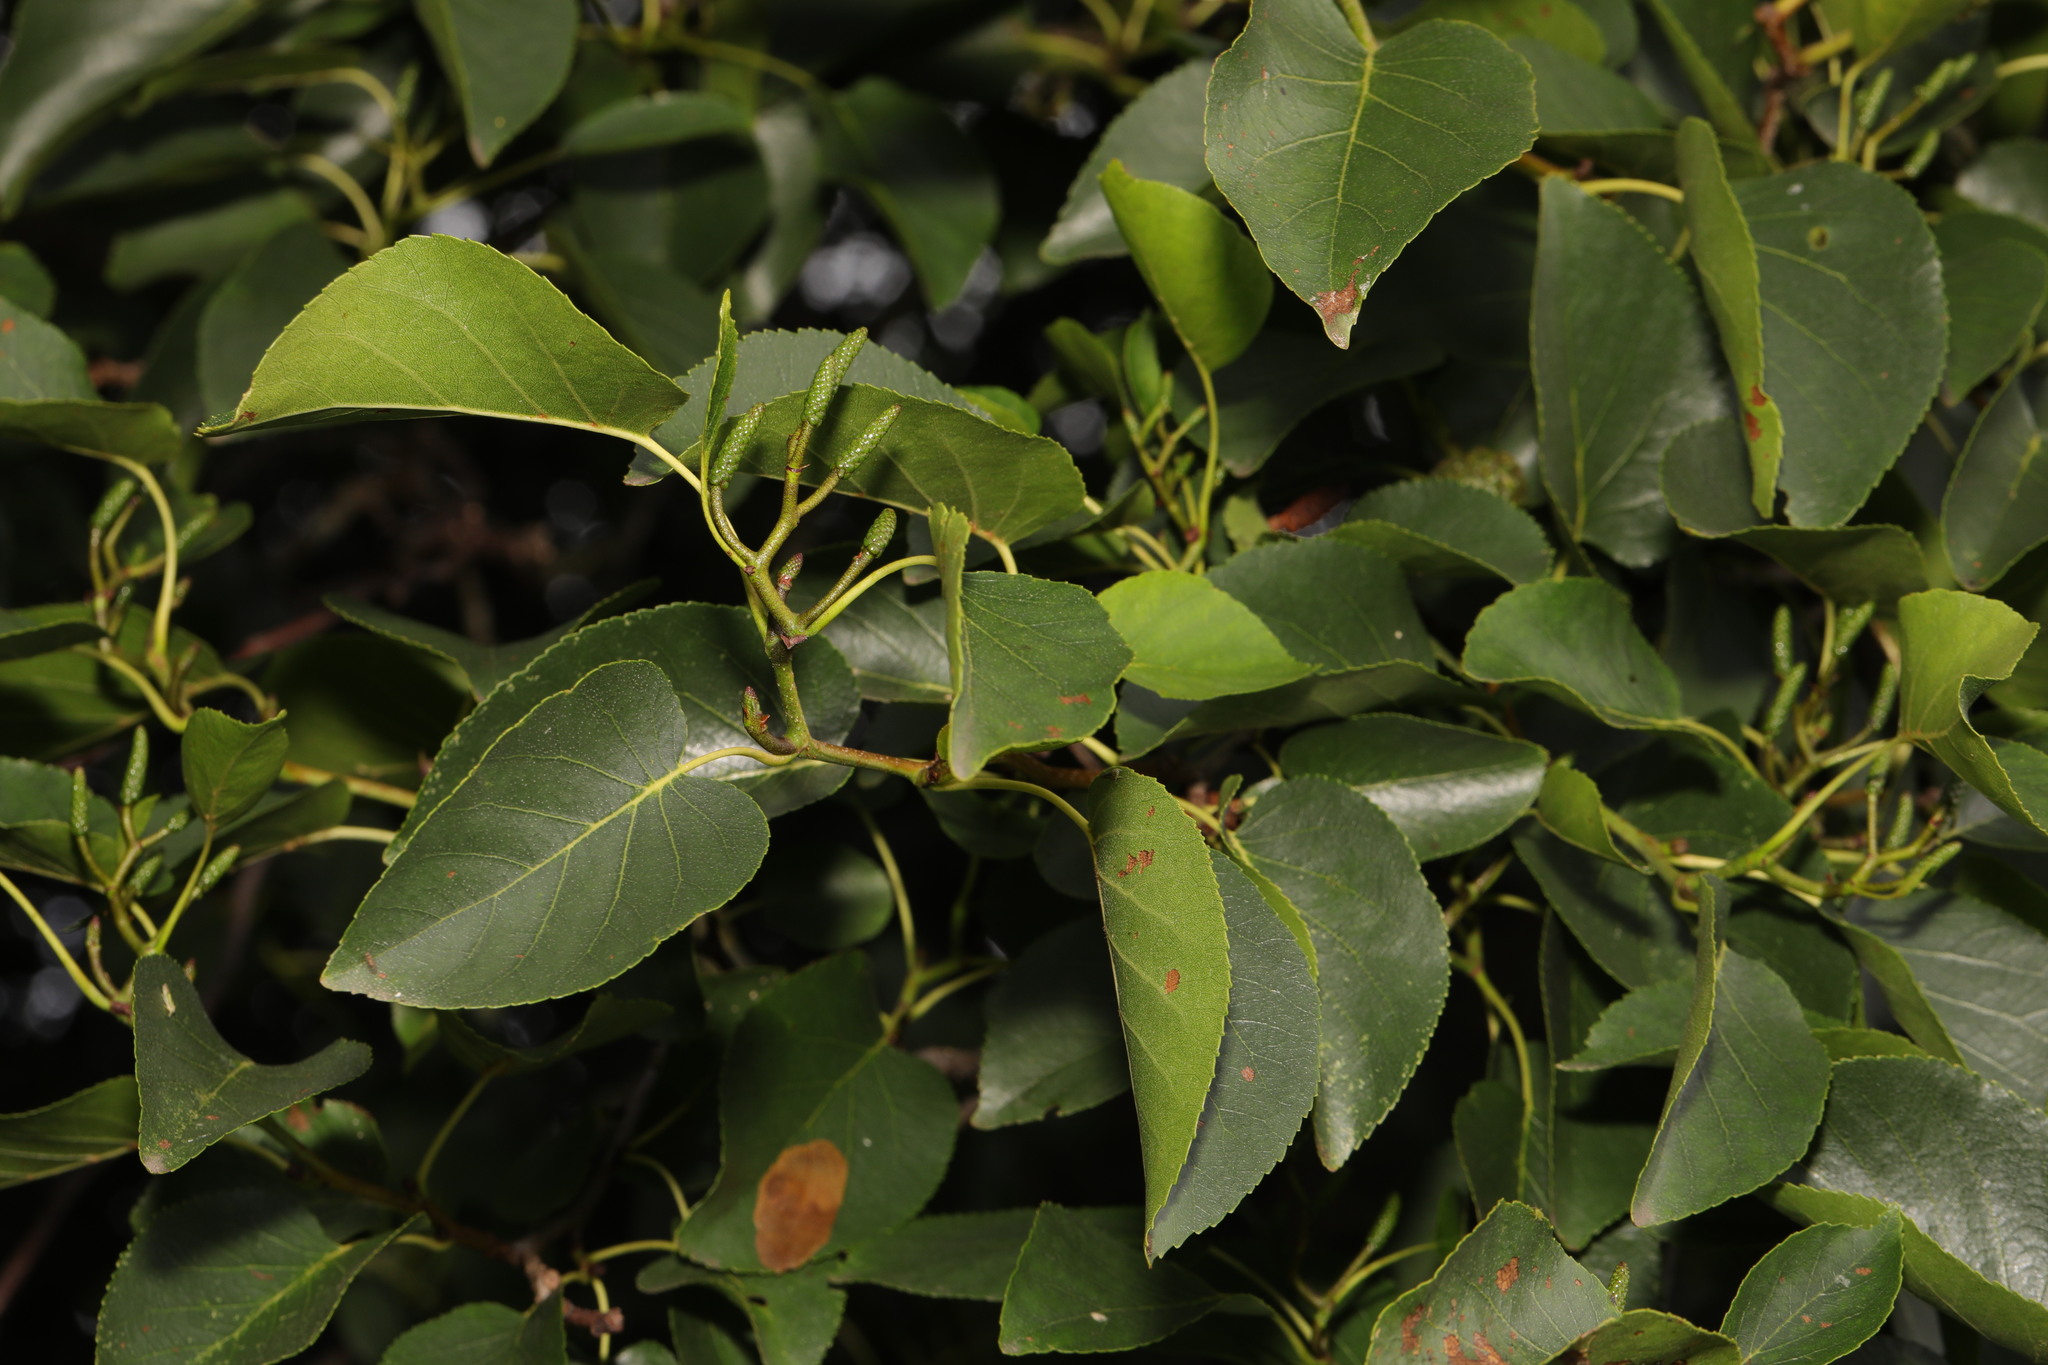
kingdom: Plantae
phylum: Tracheophyta
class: Magnoliopsida
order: Fagales
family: Betulaceae
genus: Alnus
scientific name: Alnus cordata
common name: Italian alder
